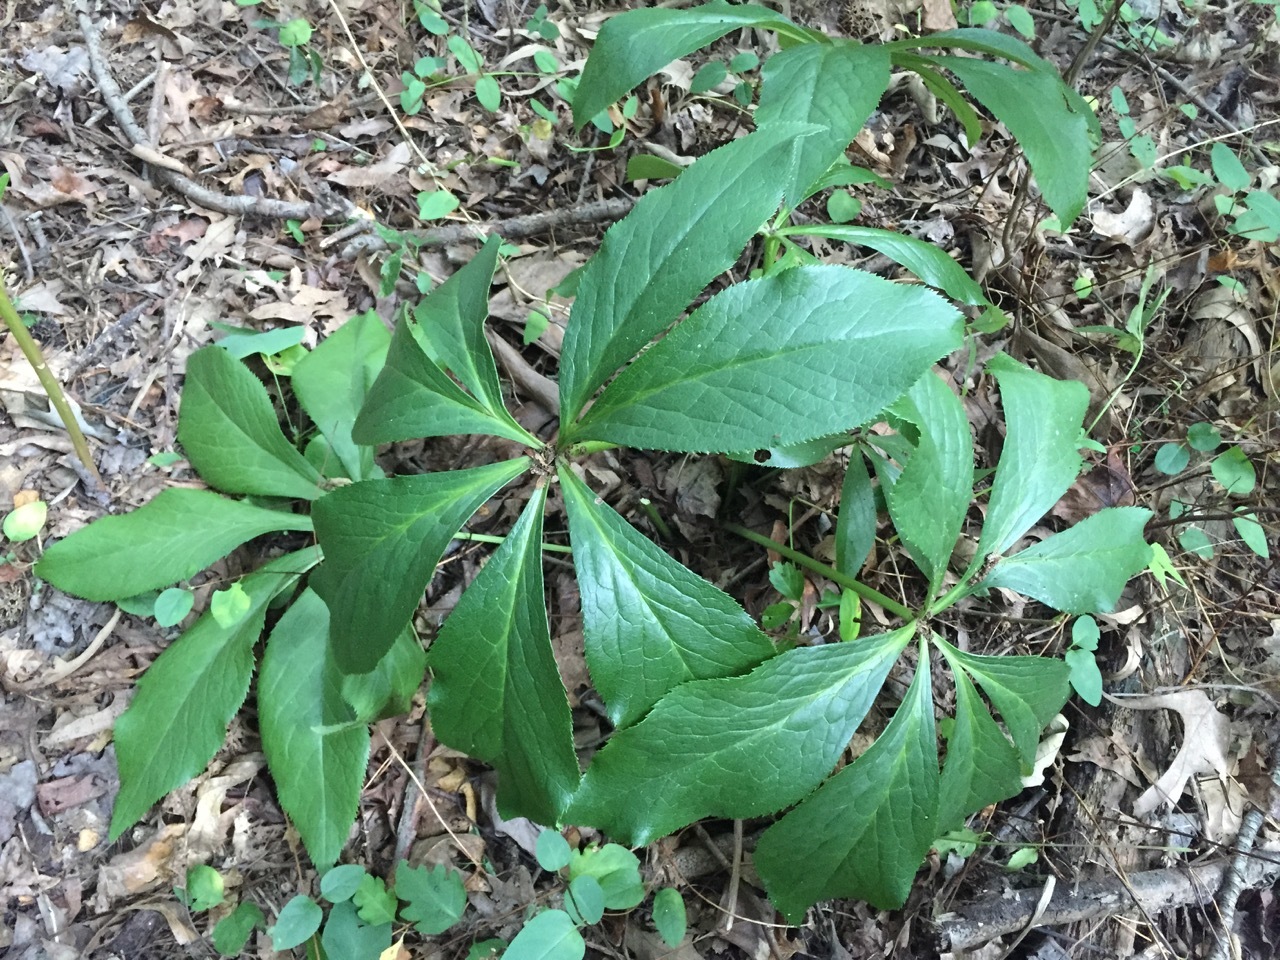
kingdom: Plantae
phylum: Tracheophyta
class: Magnoliopsida
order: Ranunculales
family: Ranunculaceae
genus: Helleborus
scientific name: Helleborus orientalis
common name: Lenten-rose
